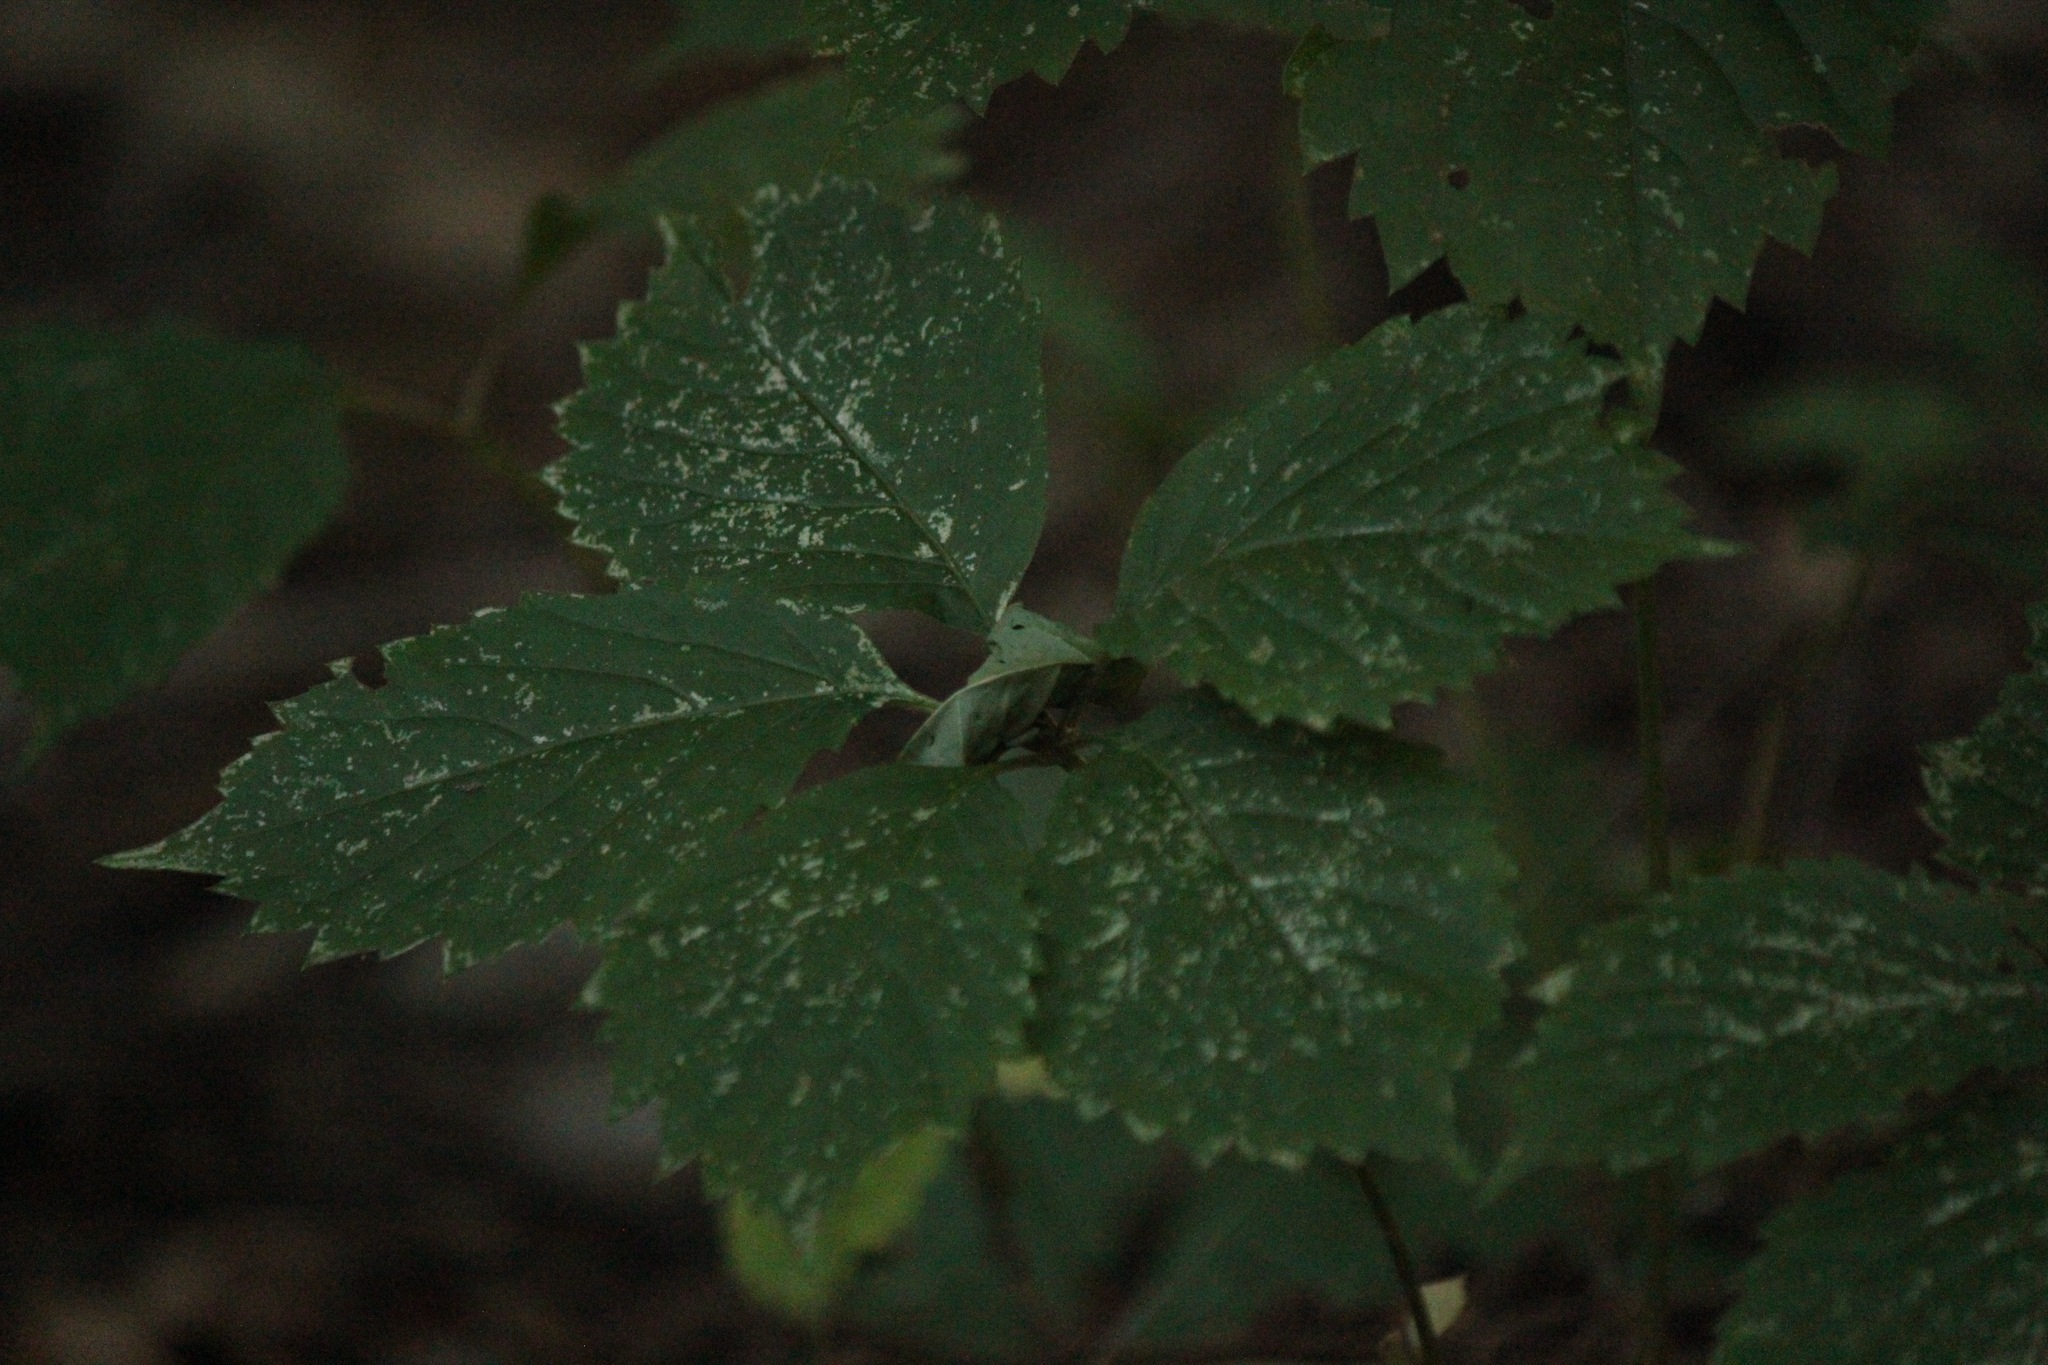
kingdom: Plantae
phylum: Tracheophyta
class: Magnoliopsida
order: Vitales
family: Vitaceae
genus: Parthenocissus
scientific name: Parthenocissus quinquefolia
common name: Virginia-creeper
